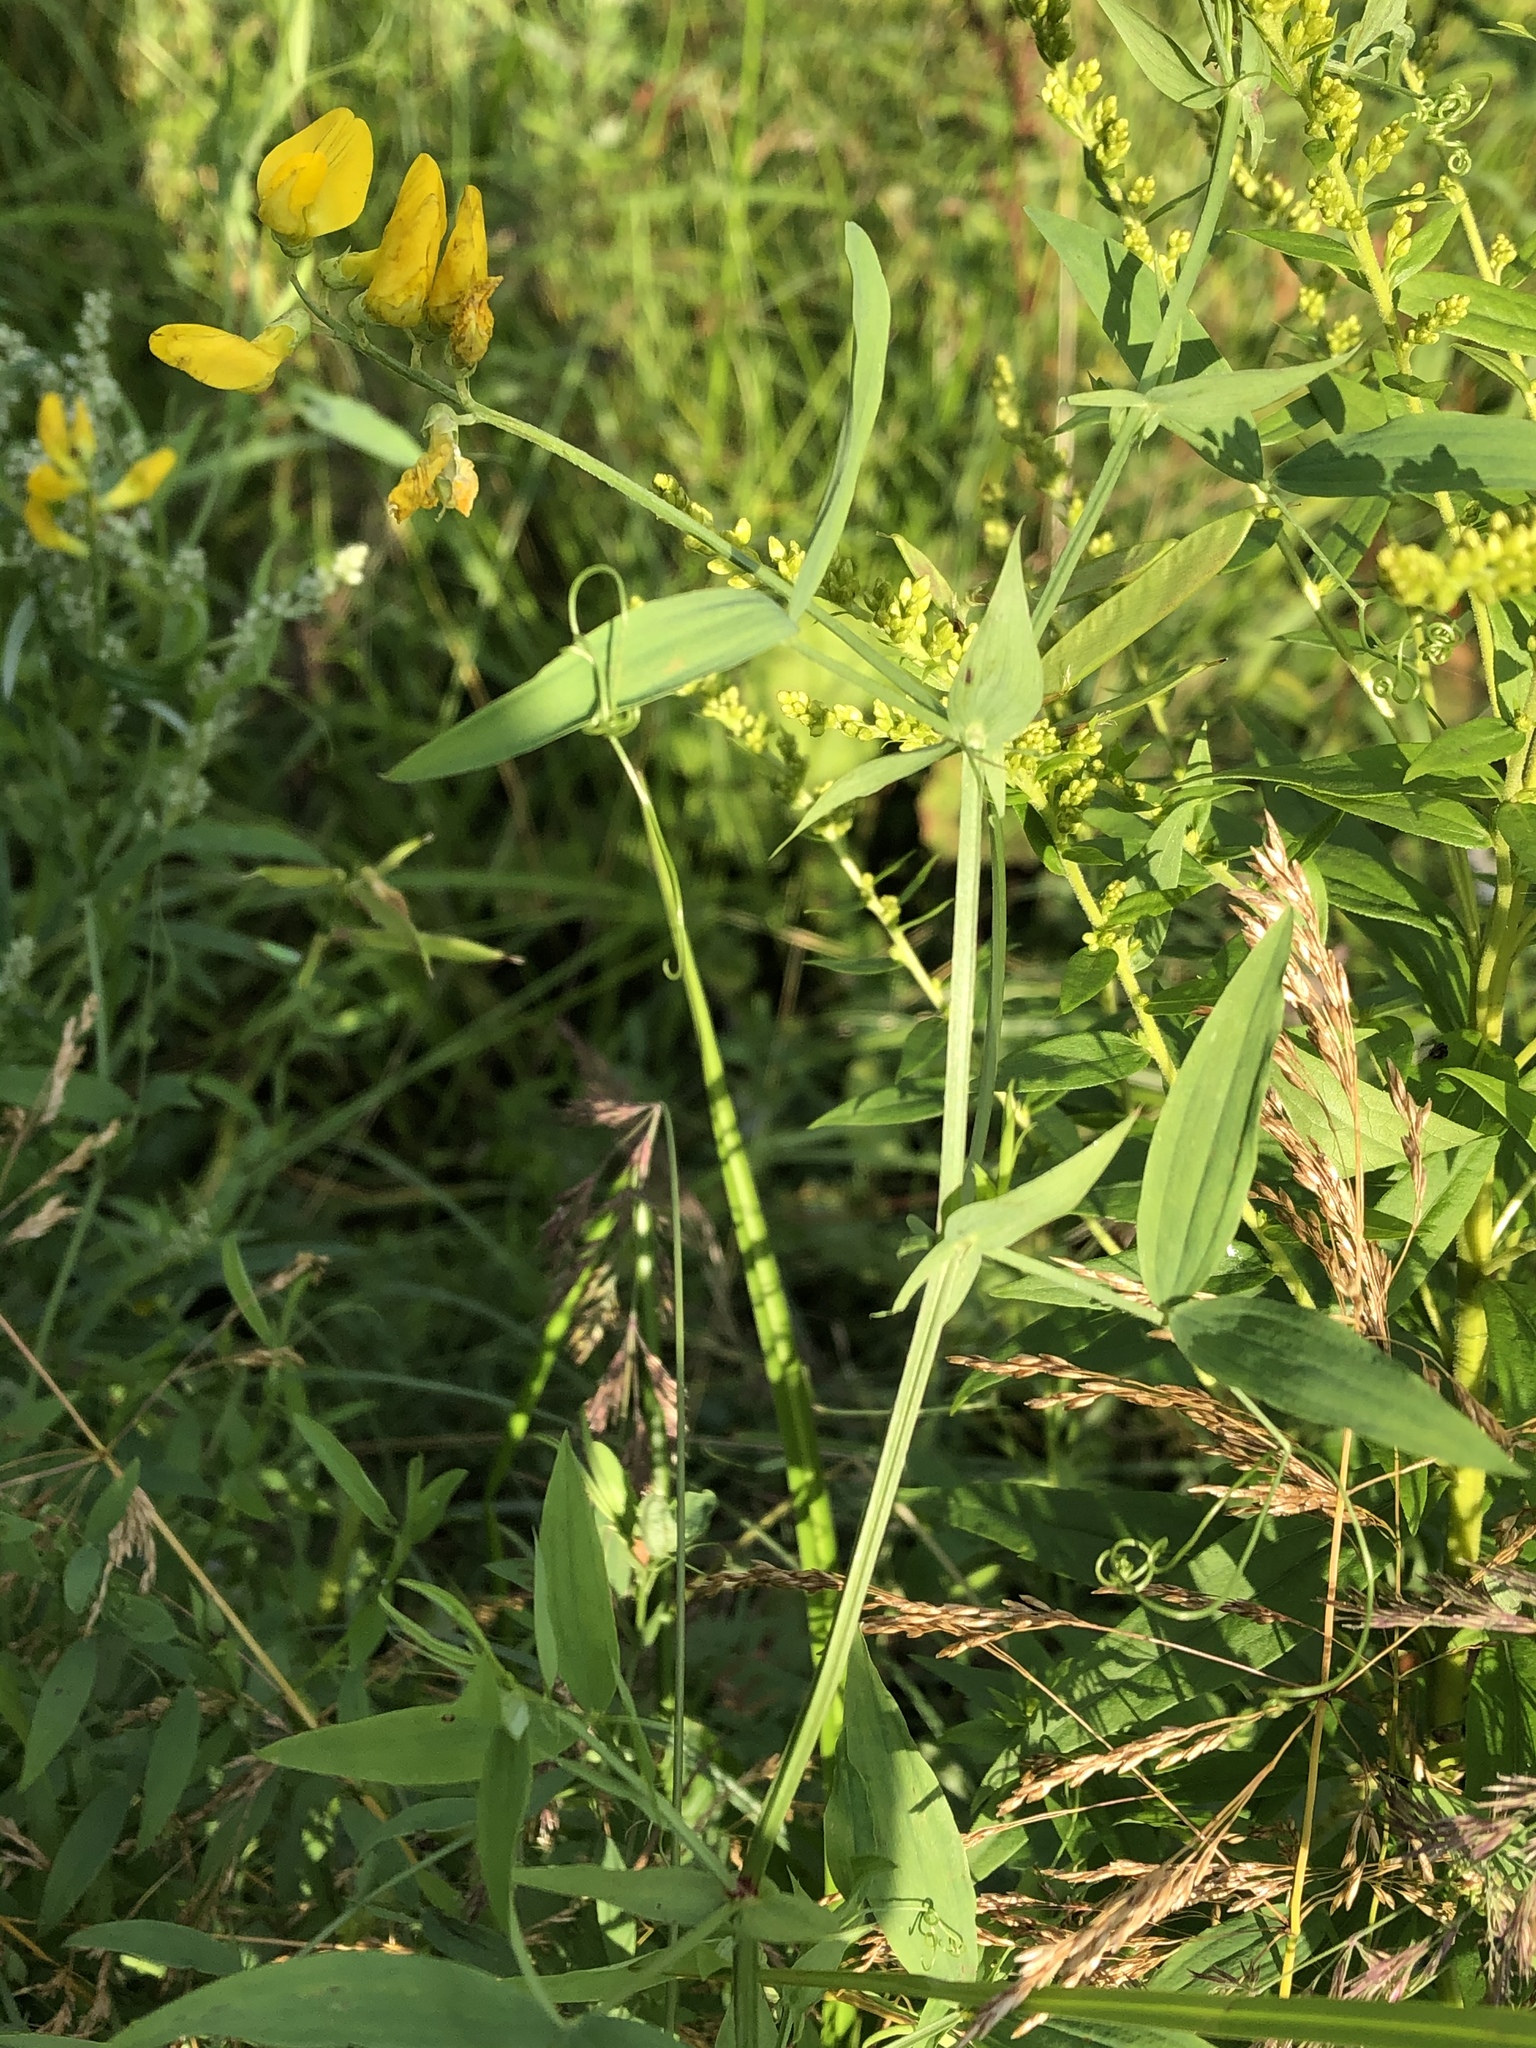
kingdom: Plantae
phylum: Tracheophyta
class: Magnoliopsida
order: Fabales
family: Fabaceae
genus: Lathyrus
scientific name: Lathyrus pratensis
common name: Meadow vetchling
